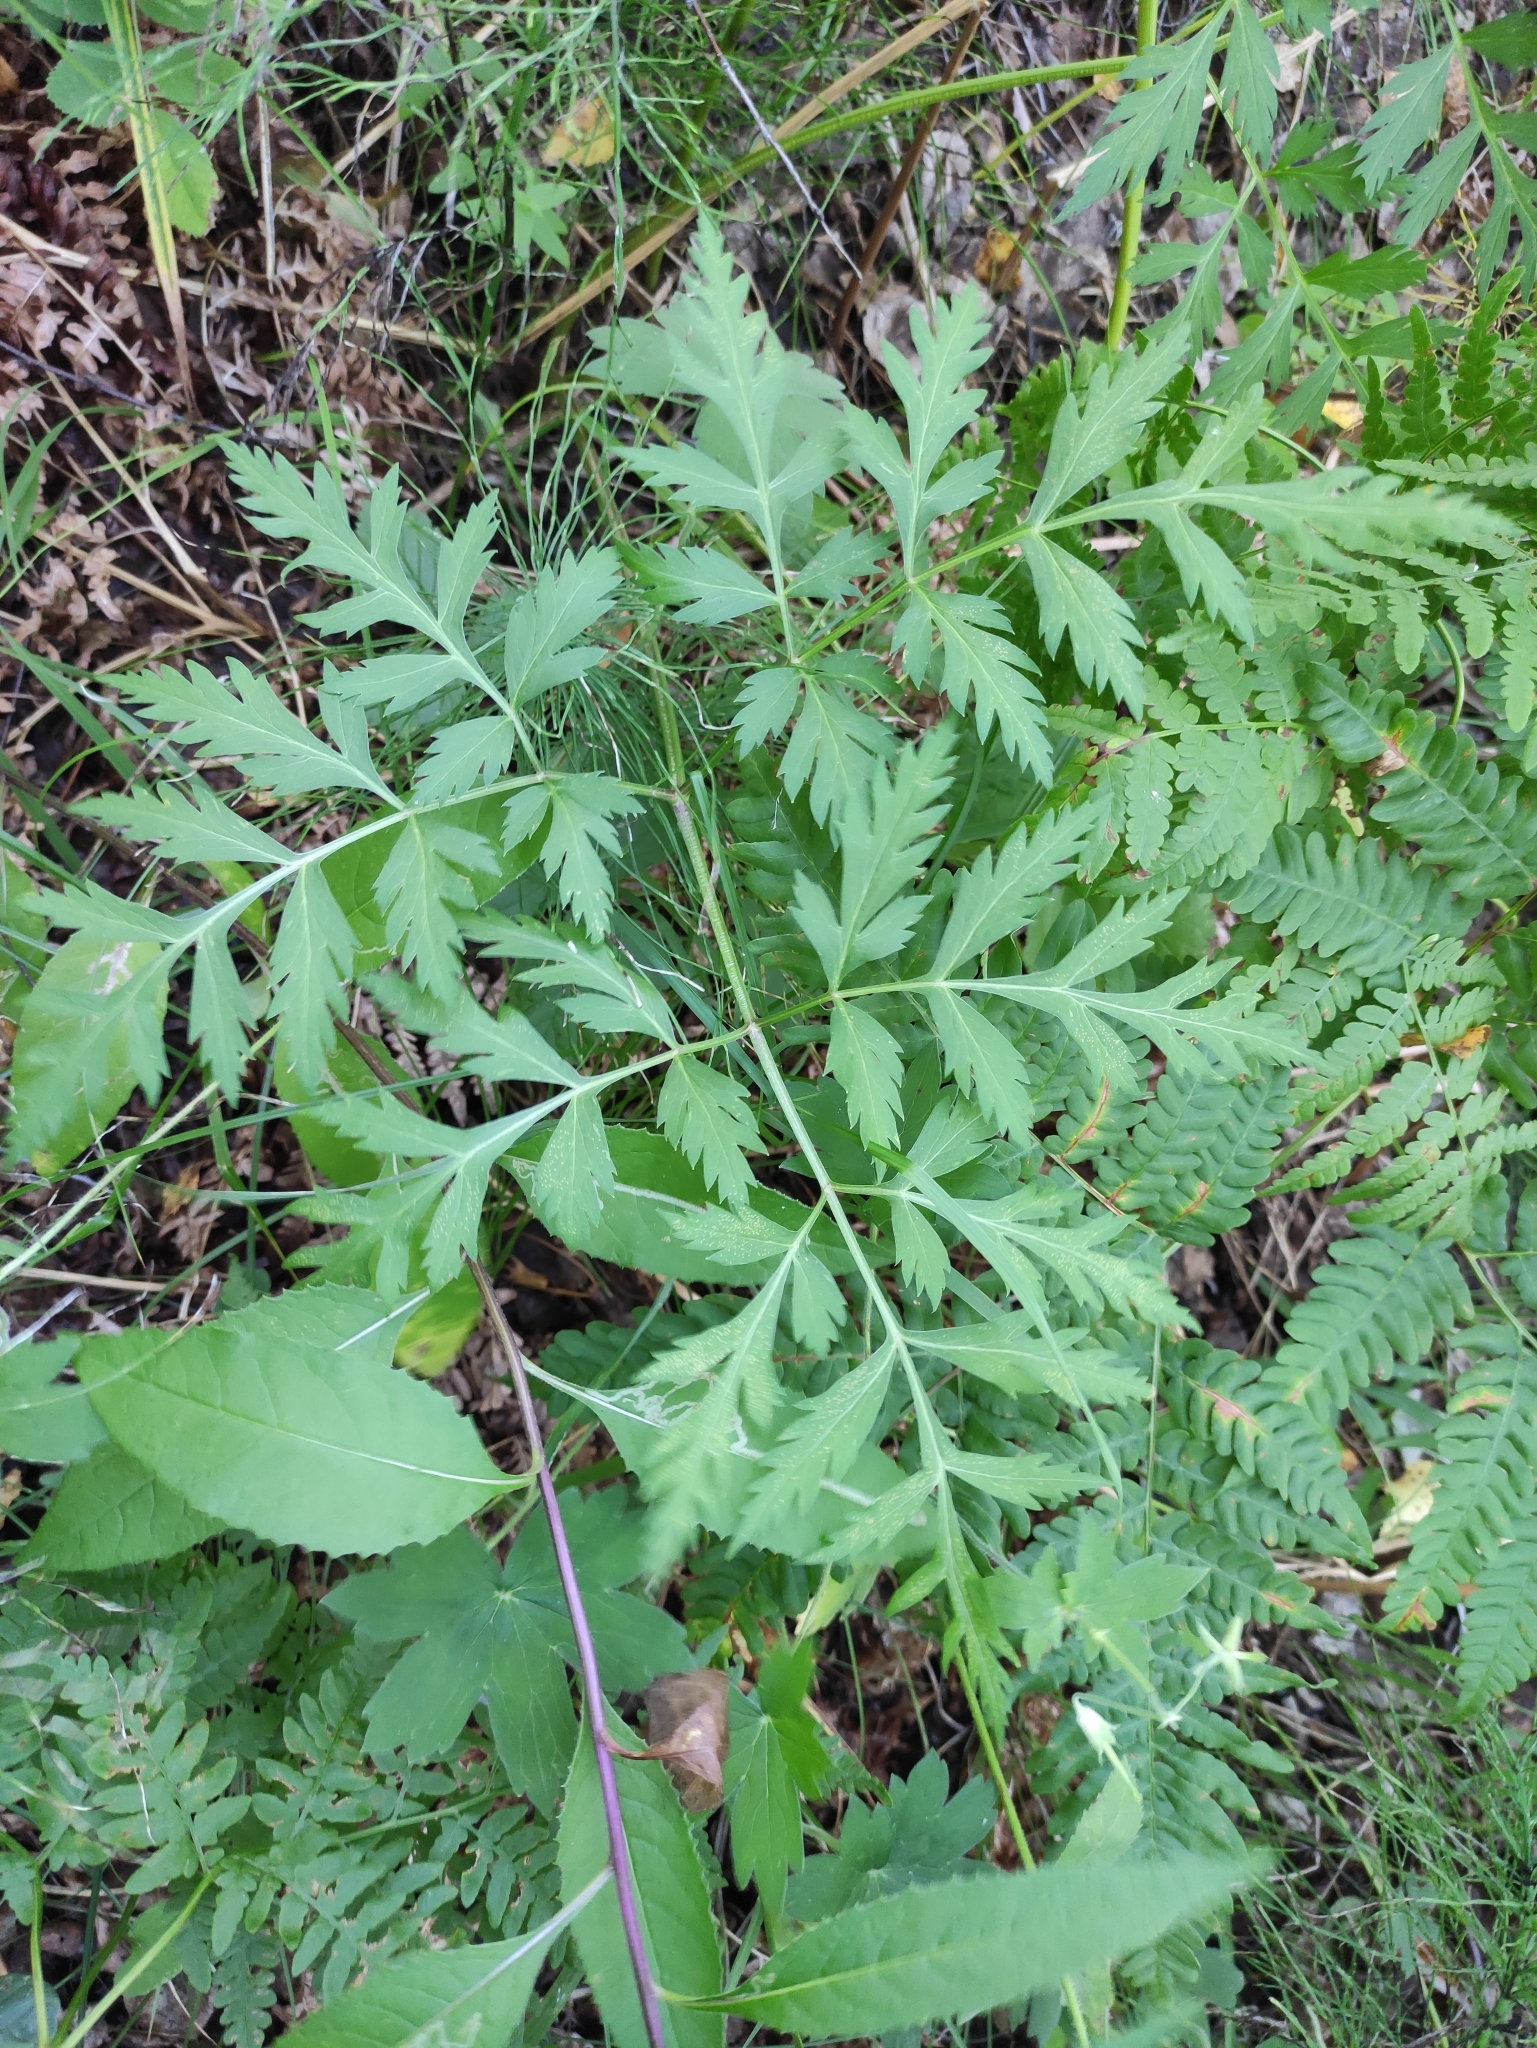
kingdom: Plantae
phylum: Tracheophyta
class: Magnoliopsida
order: Apiales
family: Apiaceae
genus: Pleurospermum
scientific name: Pleurospermum uralense
